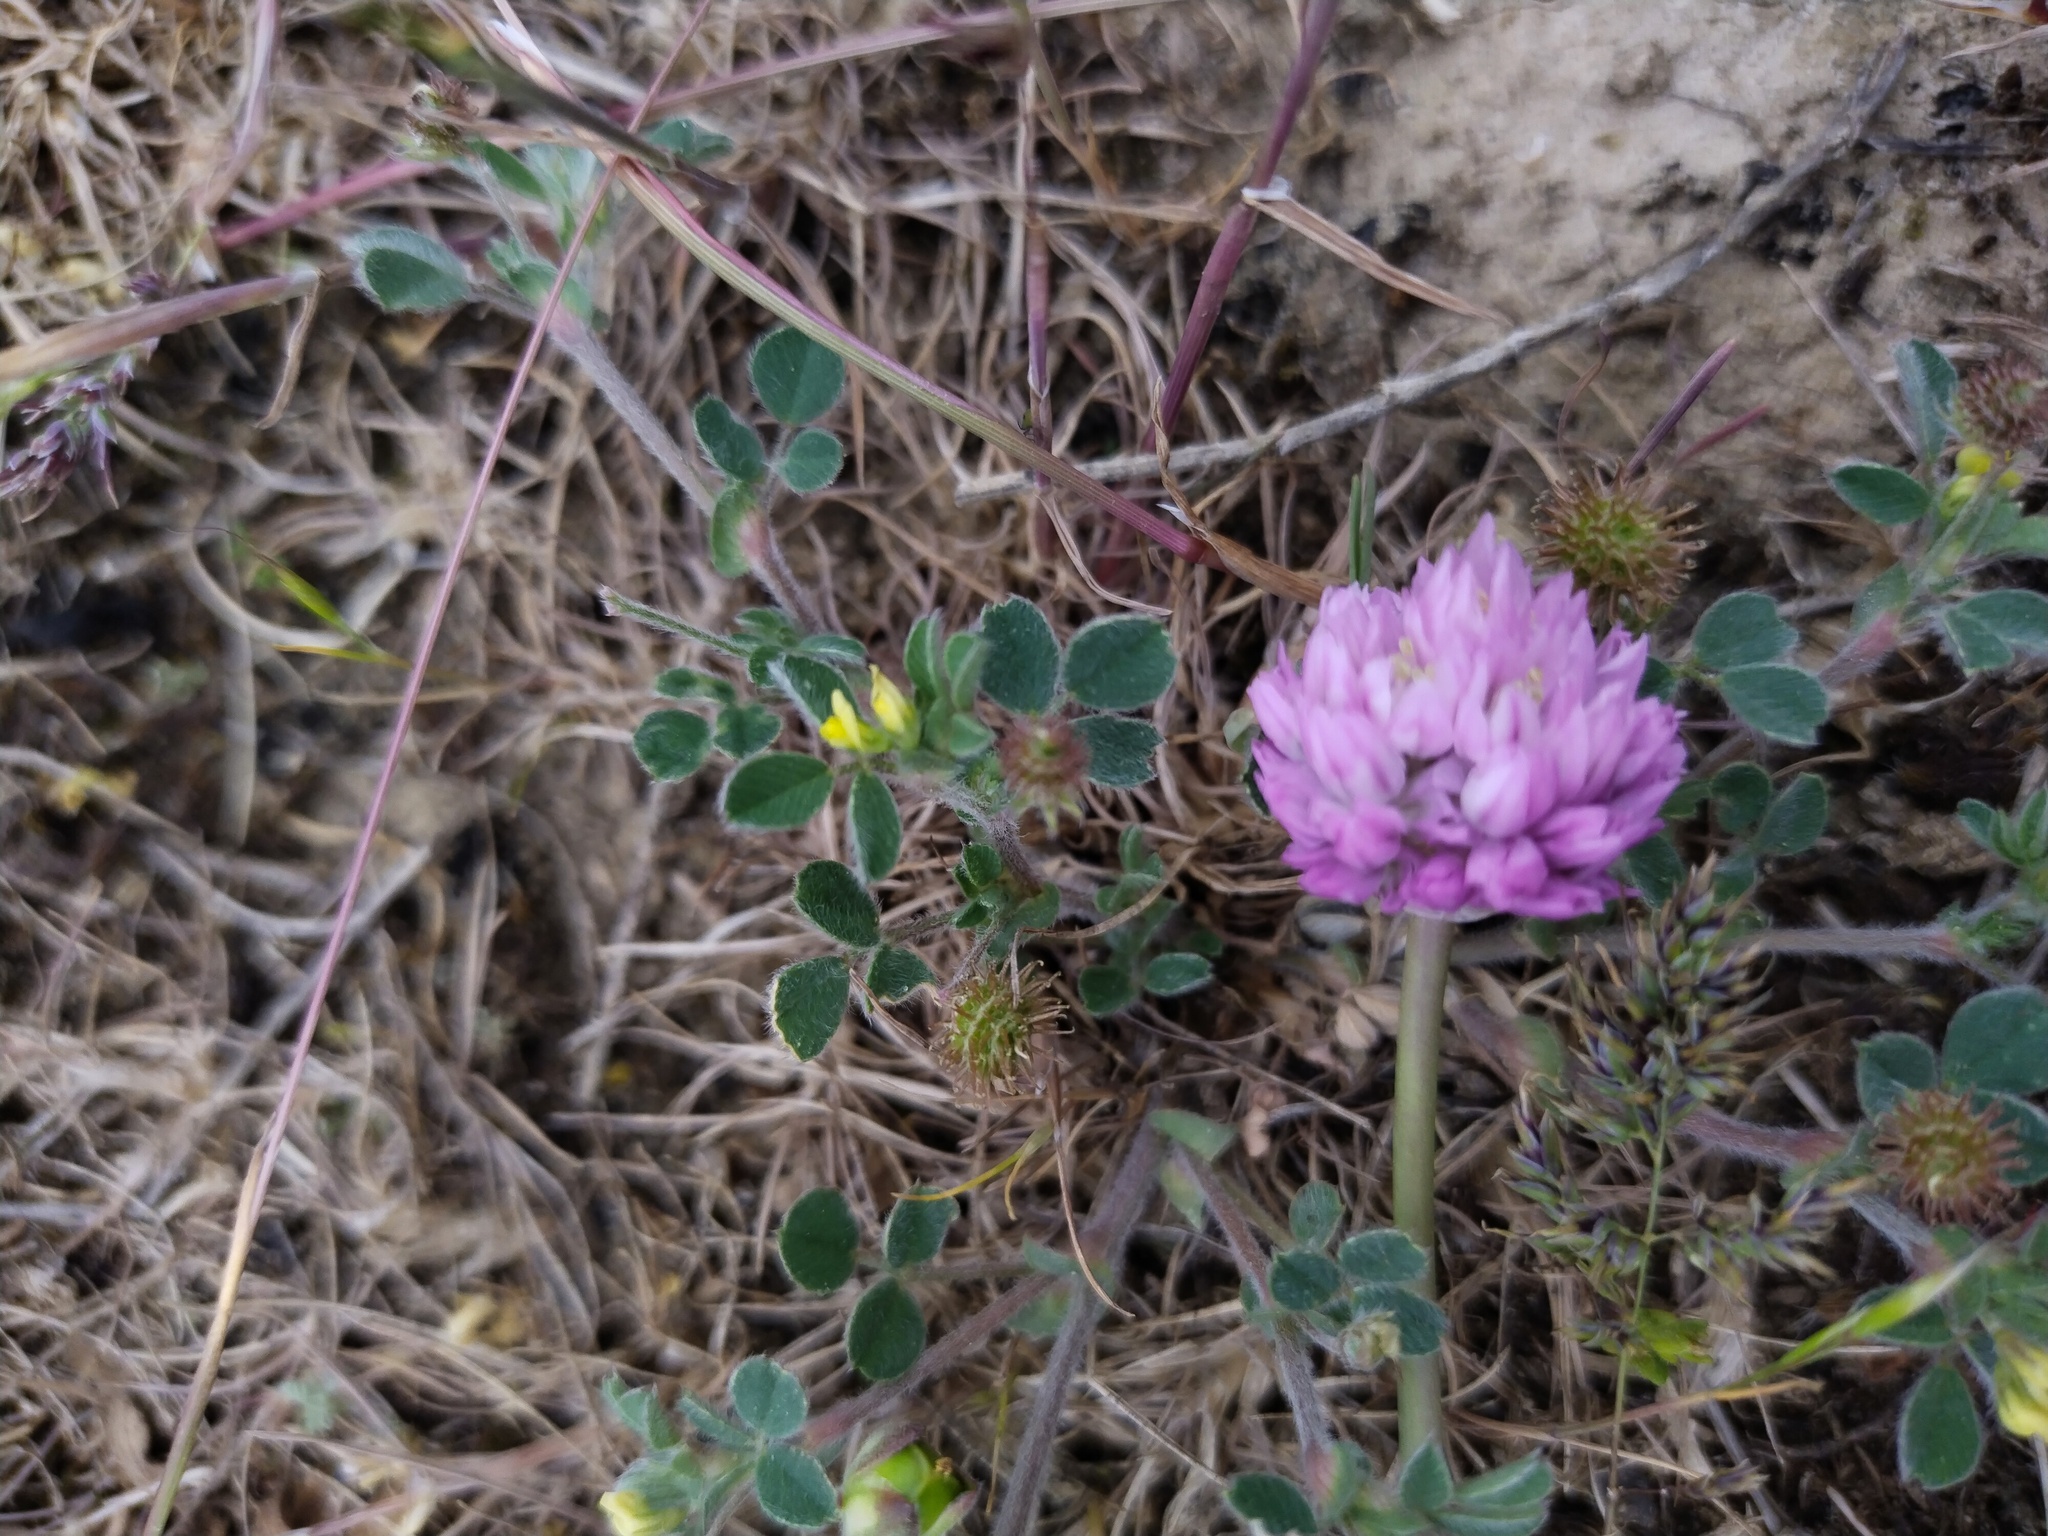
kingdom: Plantae
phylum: Tracheophyta
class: Liliopsida
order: Asparagales
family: Amaryllidaceae
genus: Allium
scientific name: Allium rubellum
